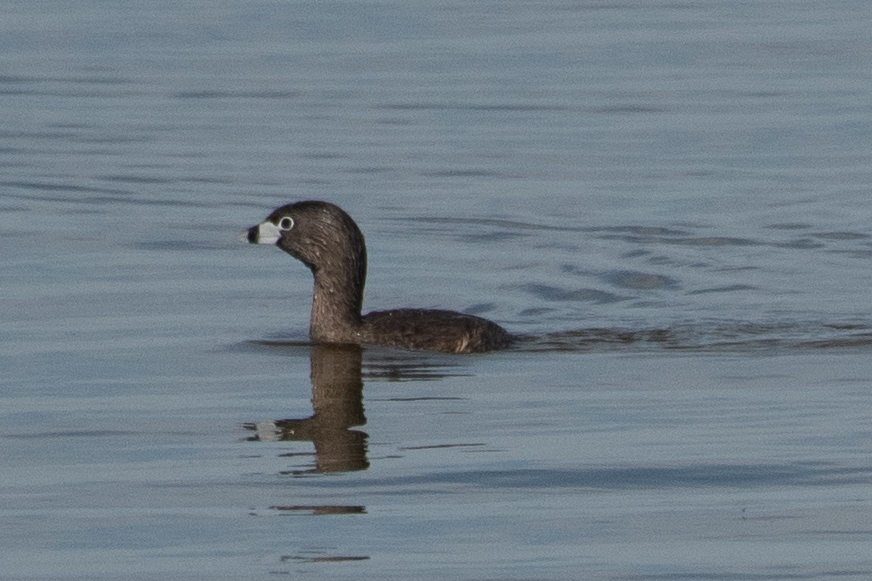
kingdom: Animalia
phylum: Chordata
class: Aves
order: Podicipediformes
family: Podicipedidae
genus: Podilymbus
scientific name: Podilymbus podiceps
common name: Pied-billed grebe
